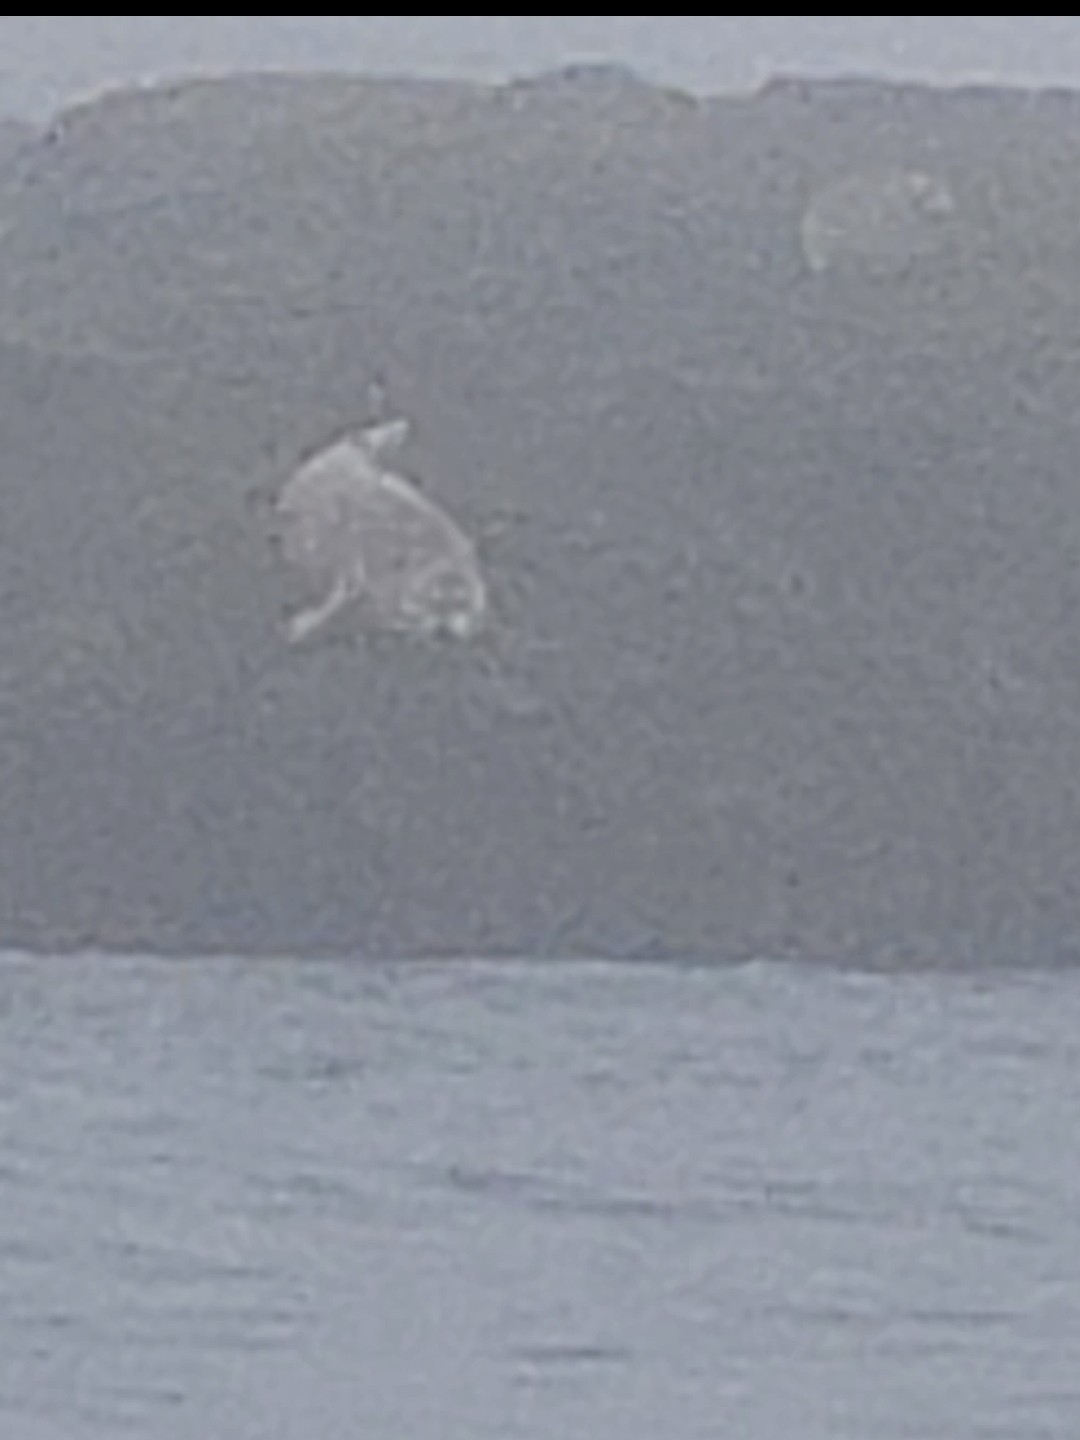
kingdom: Animalia
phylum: Chordata
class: Mammalia
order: Carnivora
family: Phocidae
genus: Phoca
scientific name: Phoca vitulina
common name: Harbor seal
